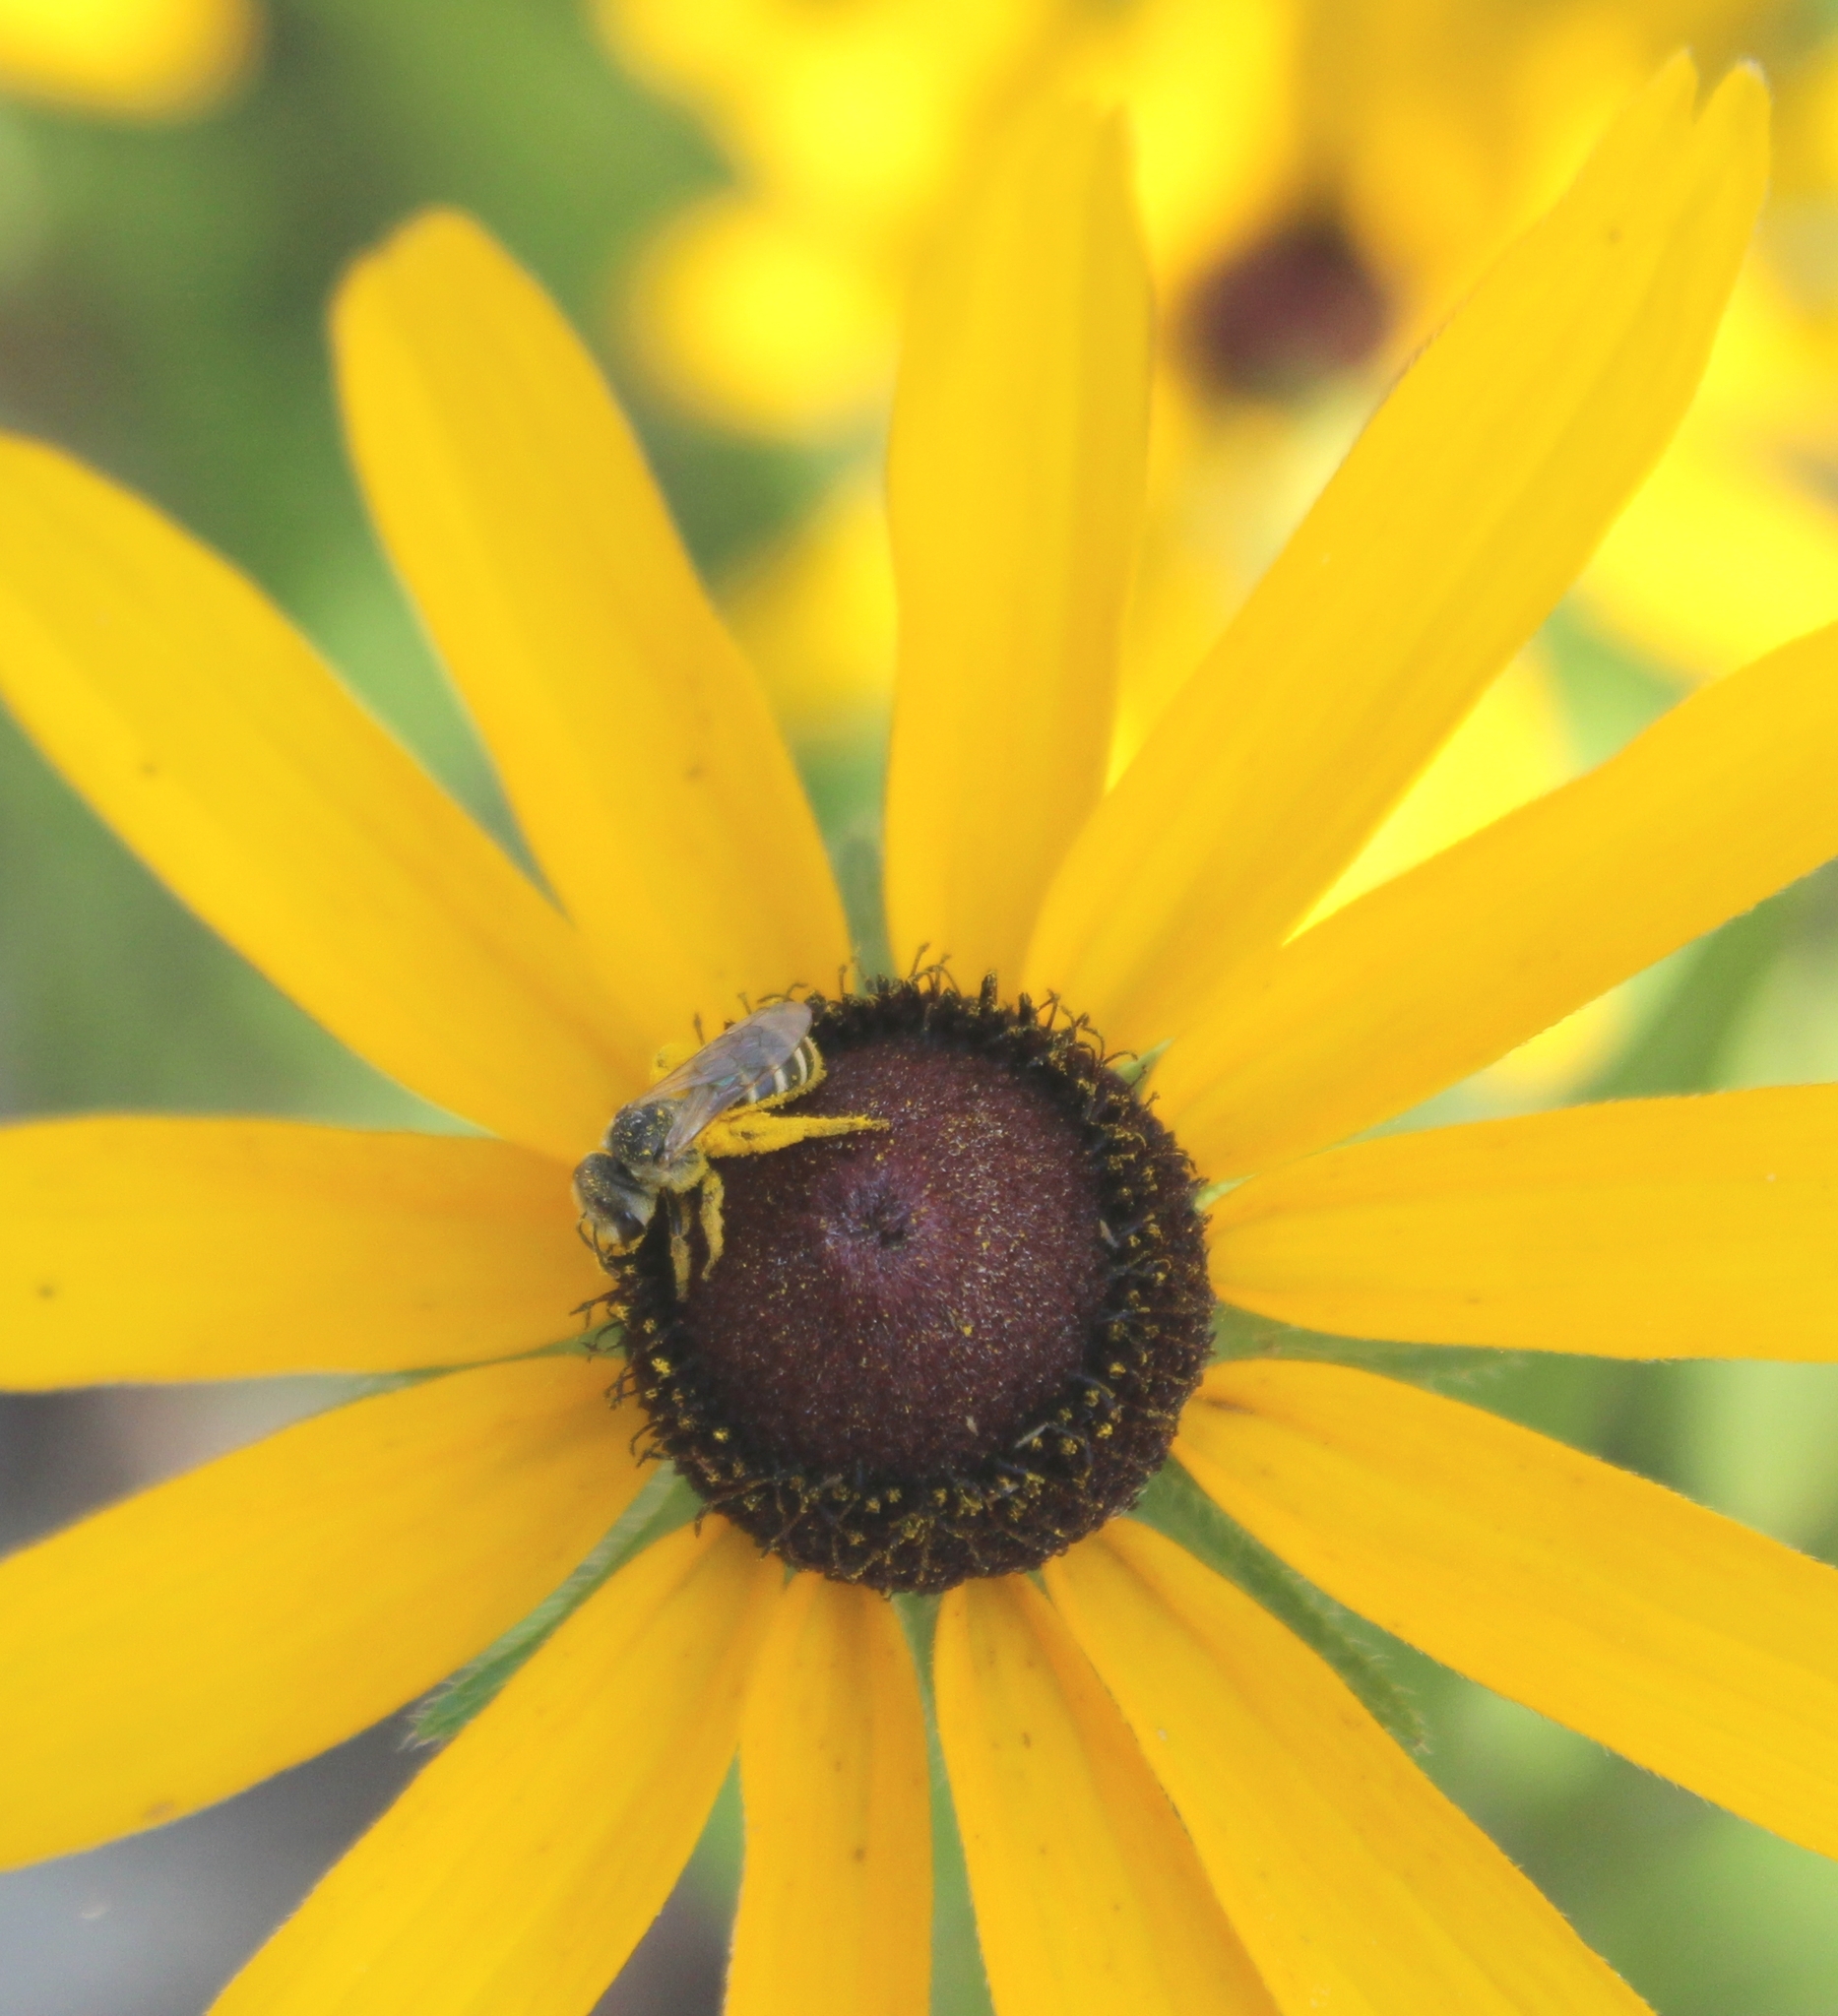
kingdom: Animalia
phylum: Arthropoda
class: Insecta
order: Hymenoptera
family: Halictidae
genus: Halictus
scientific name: Halictus ligatus
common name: Ligated furrow bee
